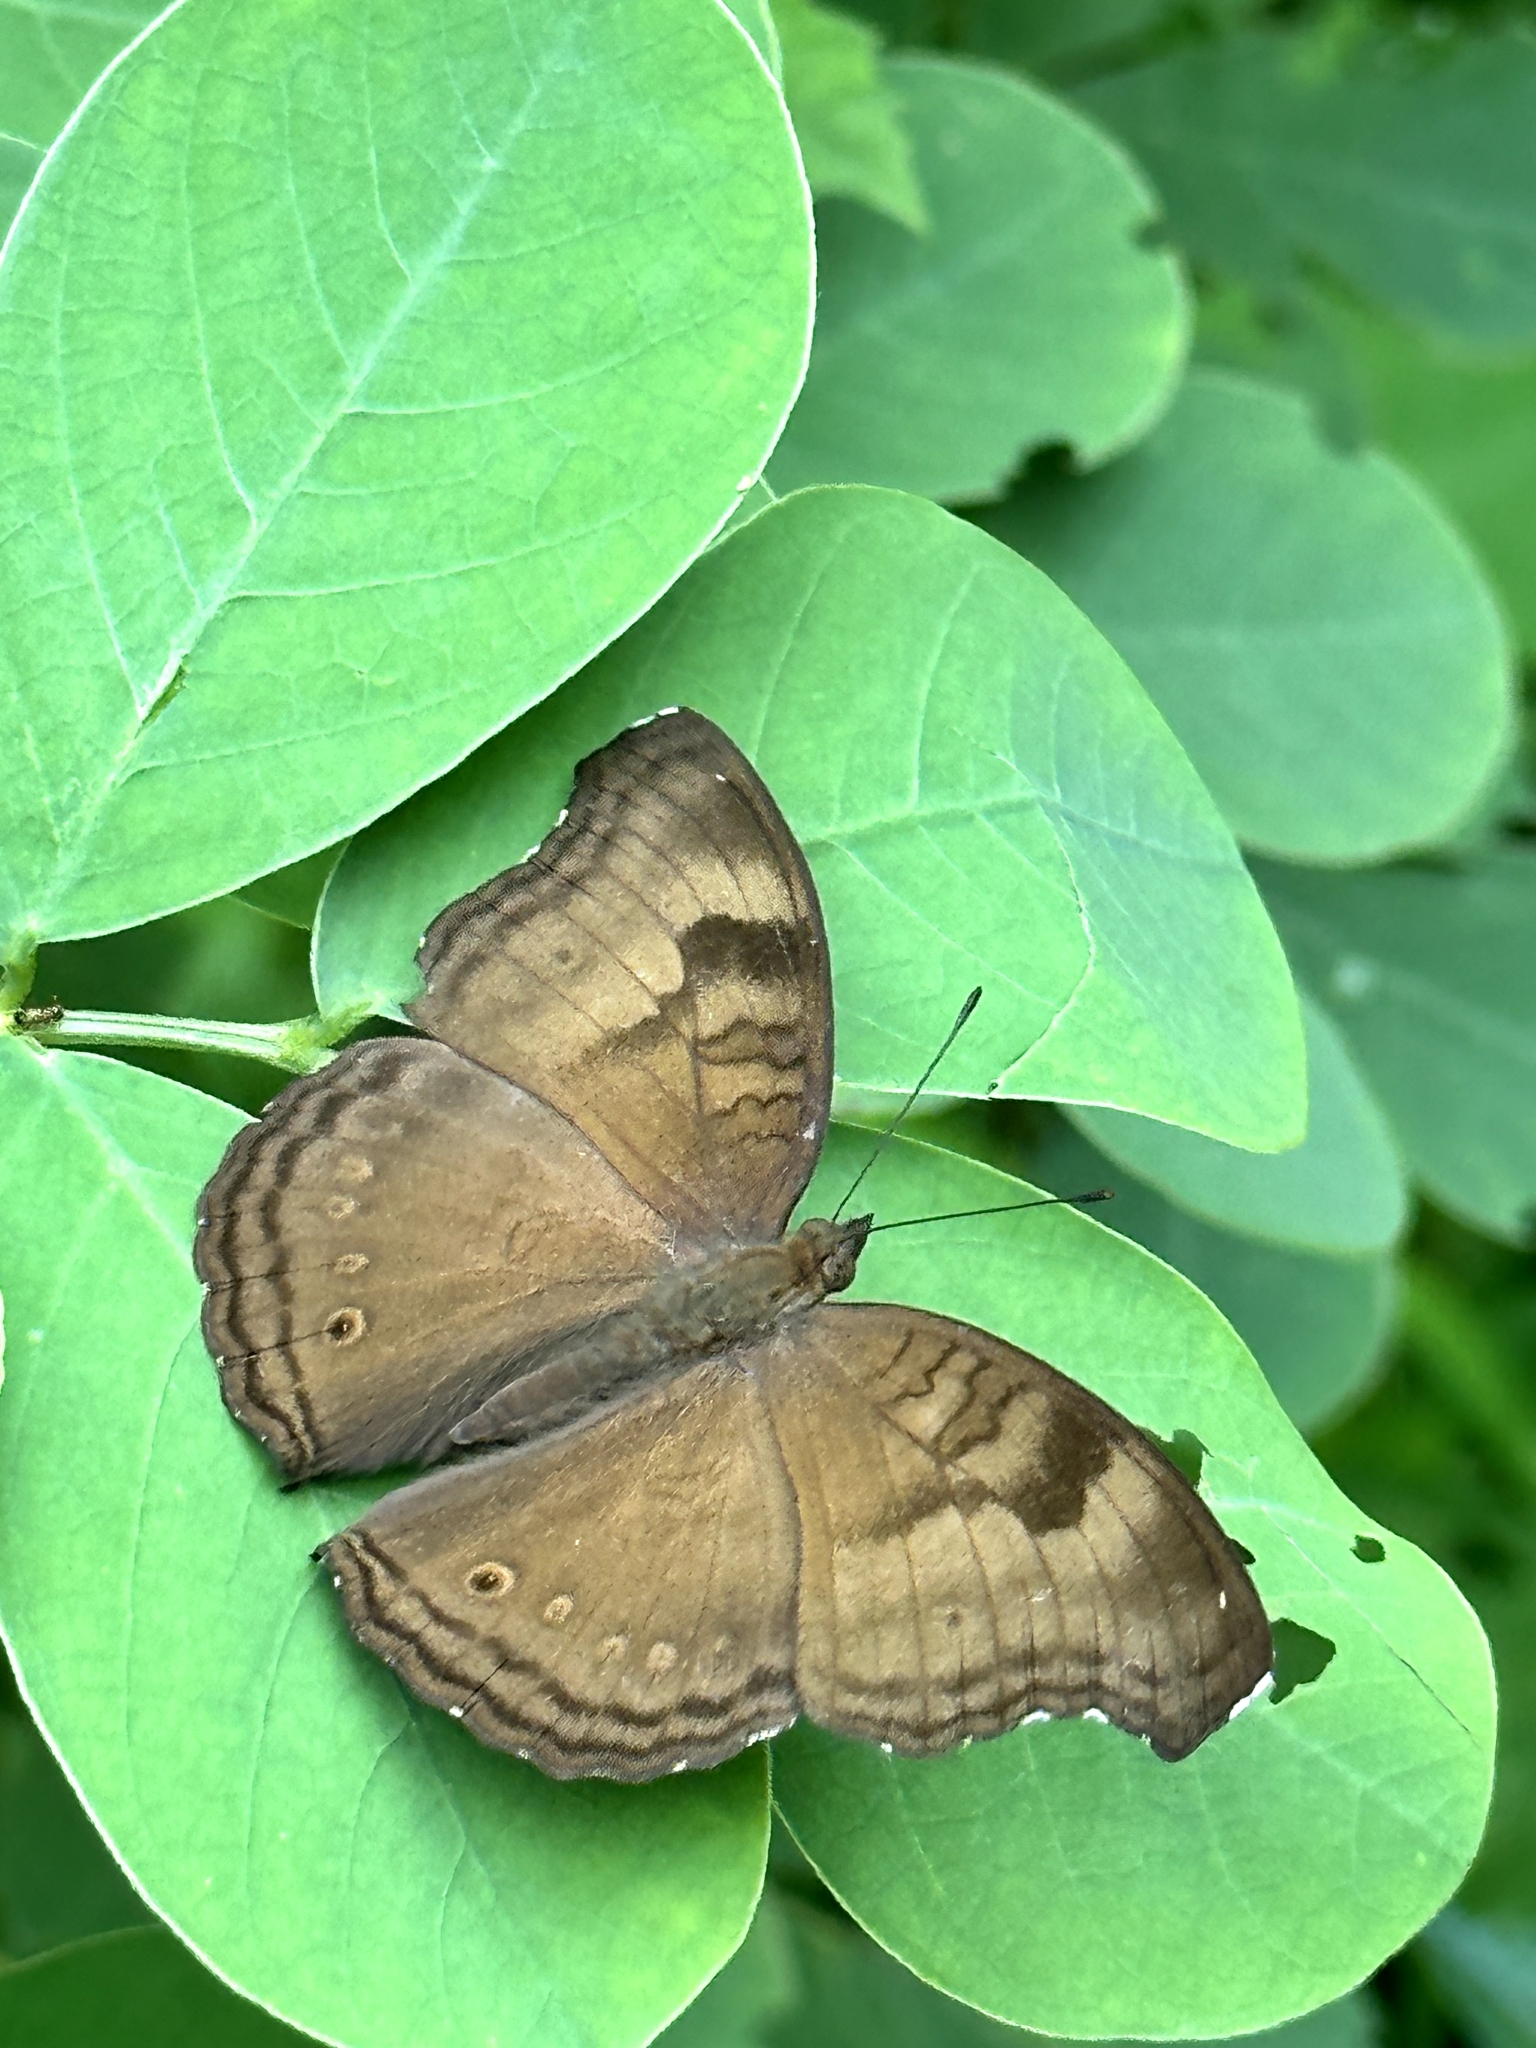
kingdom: Animalia
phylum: Arthropoda
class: Insecta
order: Lepidoptera
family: Nymphalidae
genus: Junonia
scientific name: Junonia iphita
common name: Chocolate pansy
